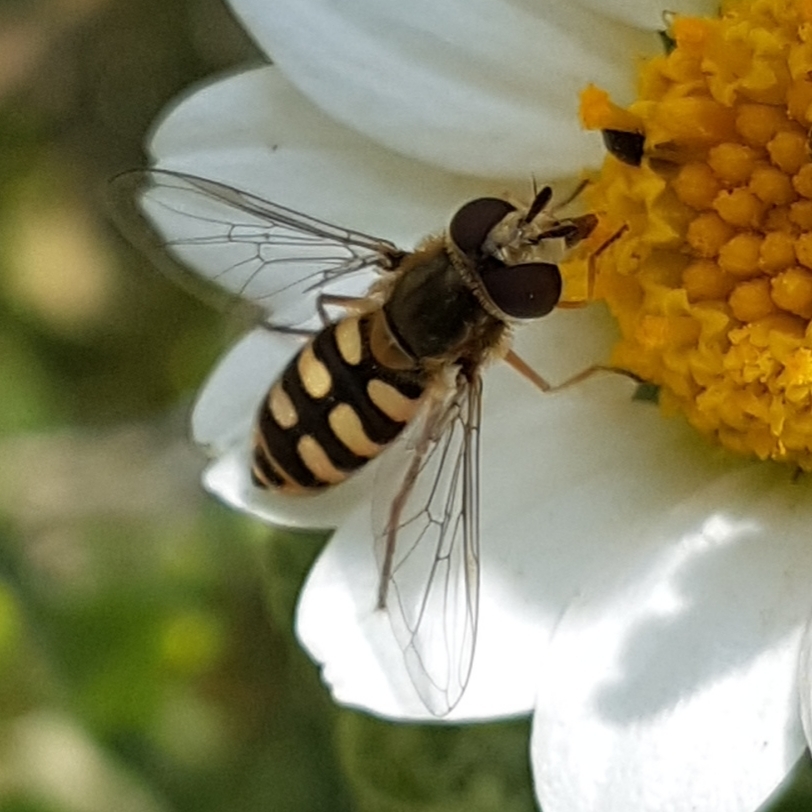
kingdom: Animalia
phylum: Arthropoda
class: Insecta
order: Diptera
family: Syrphidae
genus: Eupeodes
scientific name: Eupeodes corollae
